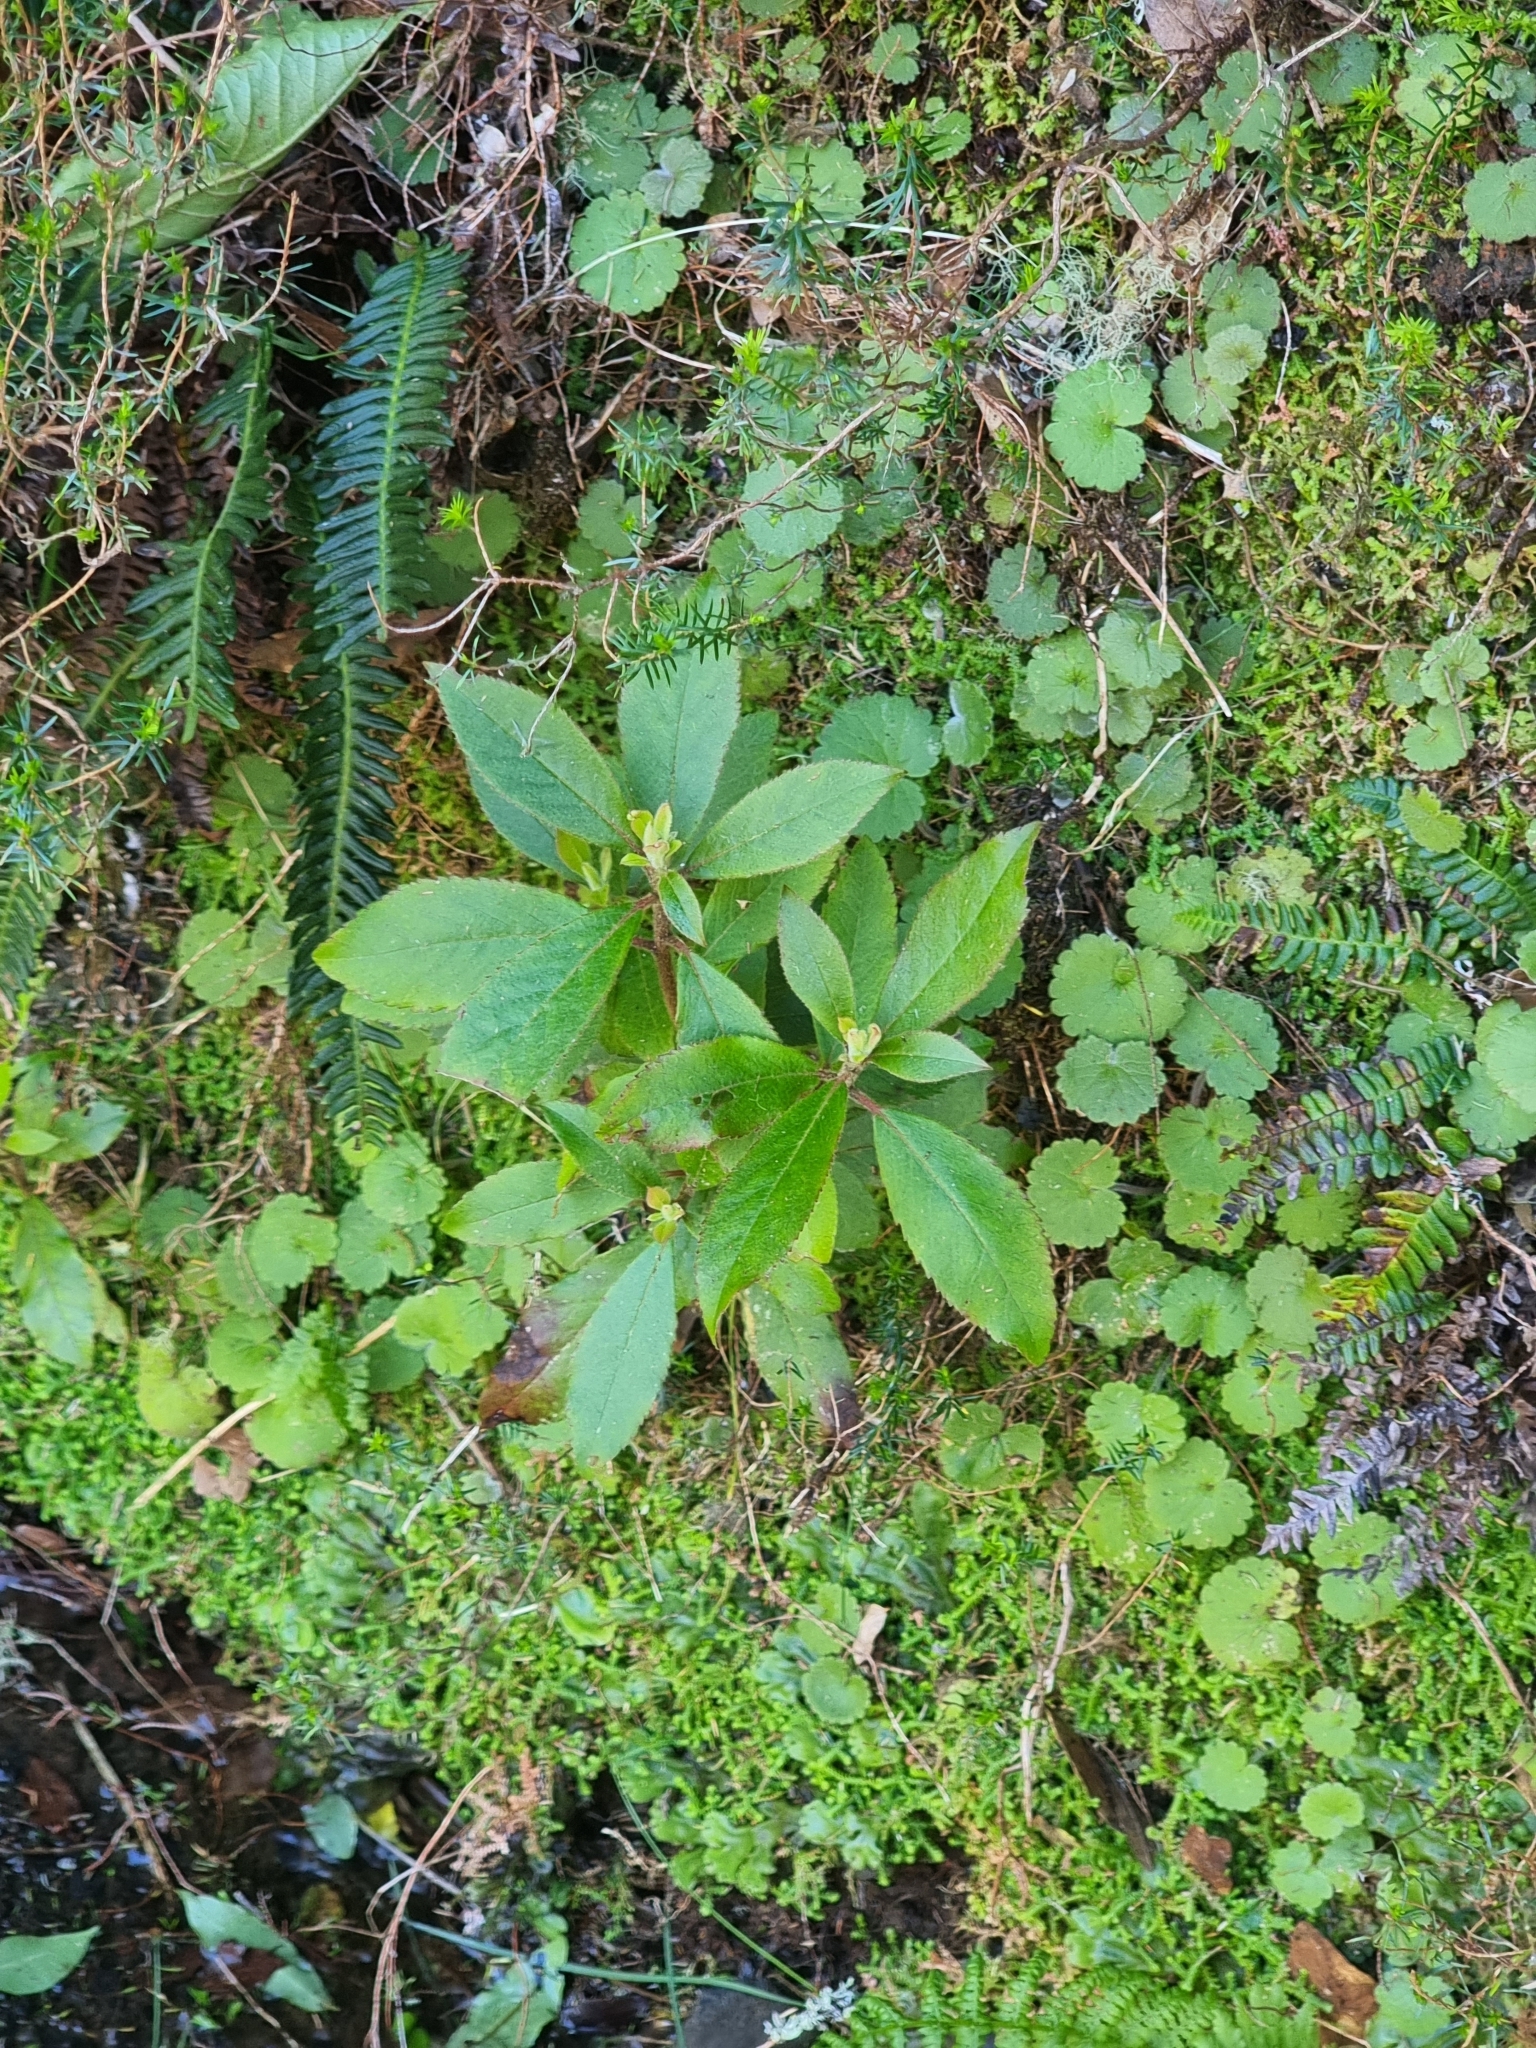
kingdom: Plantae
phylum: Tracheophyta
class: Magnoliopsida
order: Ericales
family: Clethraceae
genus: Clethra
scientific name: Clethra arborea
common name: Lily-of-the-valley-tree
